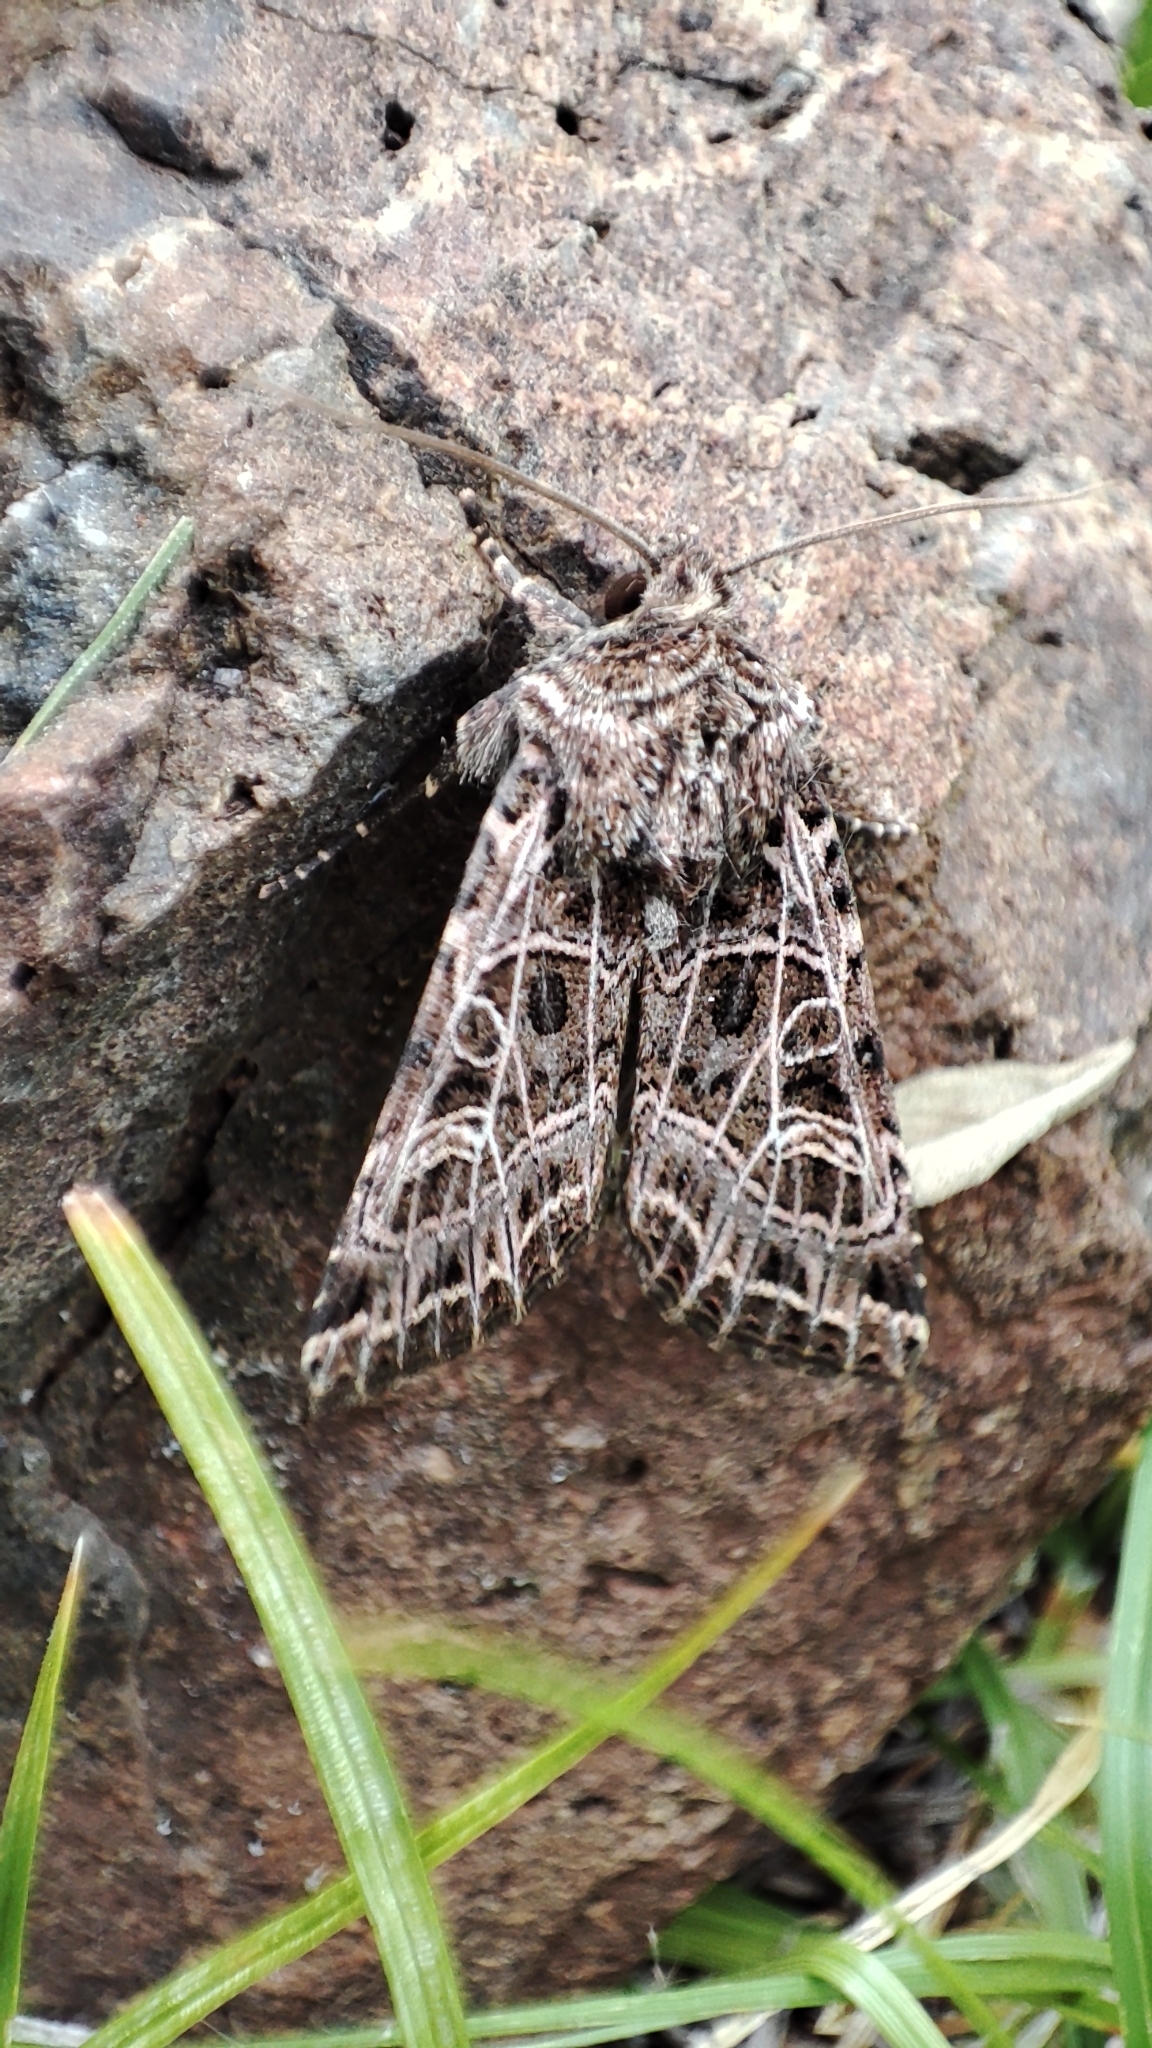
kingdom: Animalia
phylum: Arthropoda
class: Insecta
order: Lepidoptera
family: Noctuidae
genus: Sideridis
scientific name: Sideridis reticulata
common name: Bordered gothic
